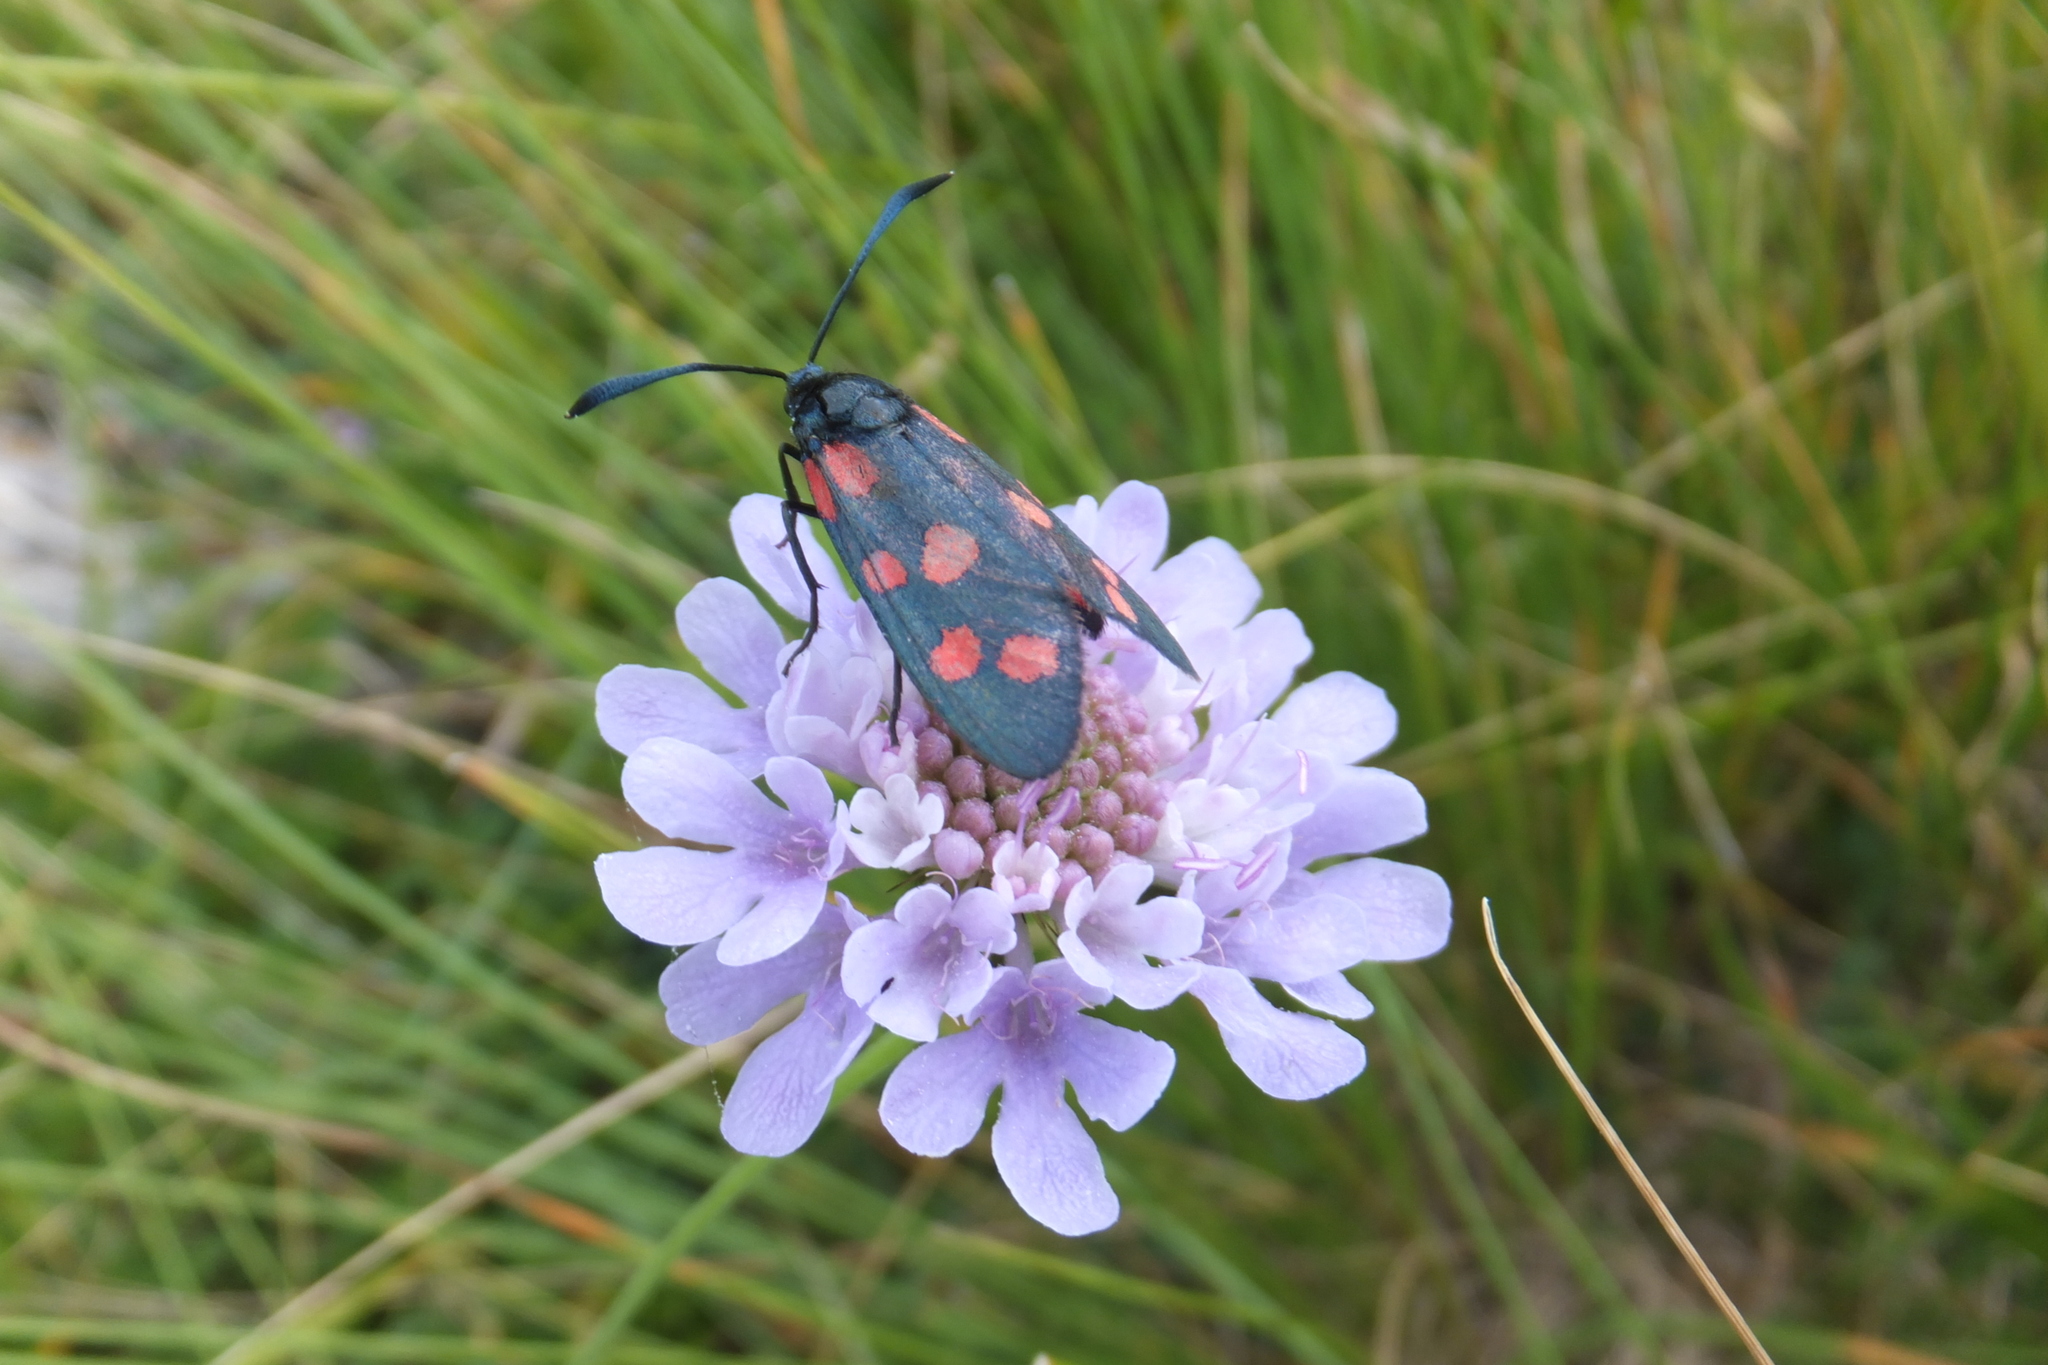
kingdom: Animalia
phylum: Arthropoda
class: Insecta
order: Lepidoptera
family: Zygaenidae
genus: Zygaena
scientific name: Zygaena transalpina
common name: Southern six spot burnet
